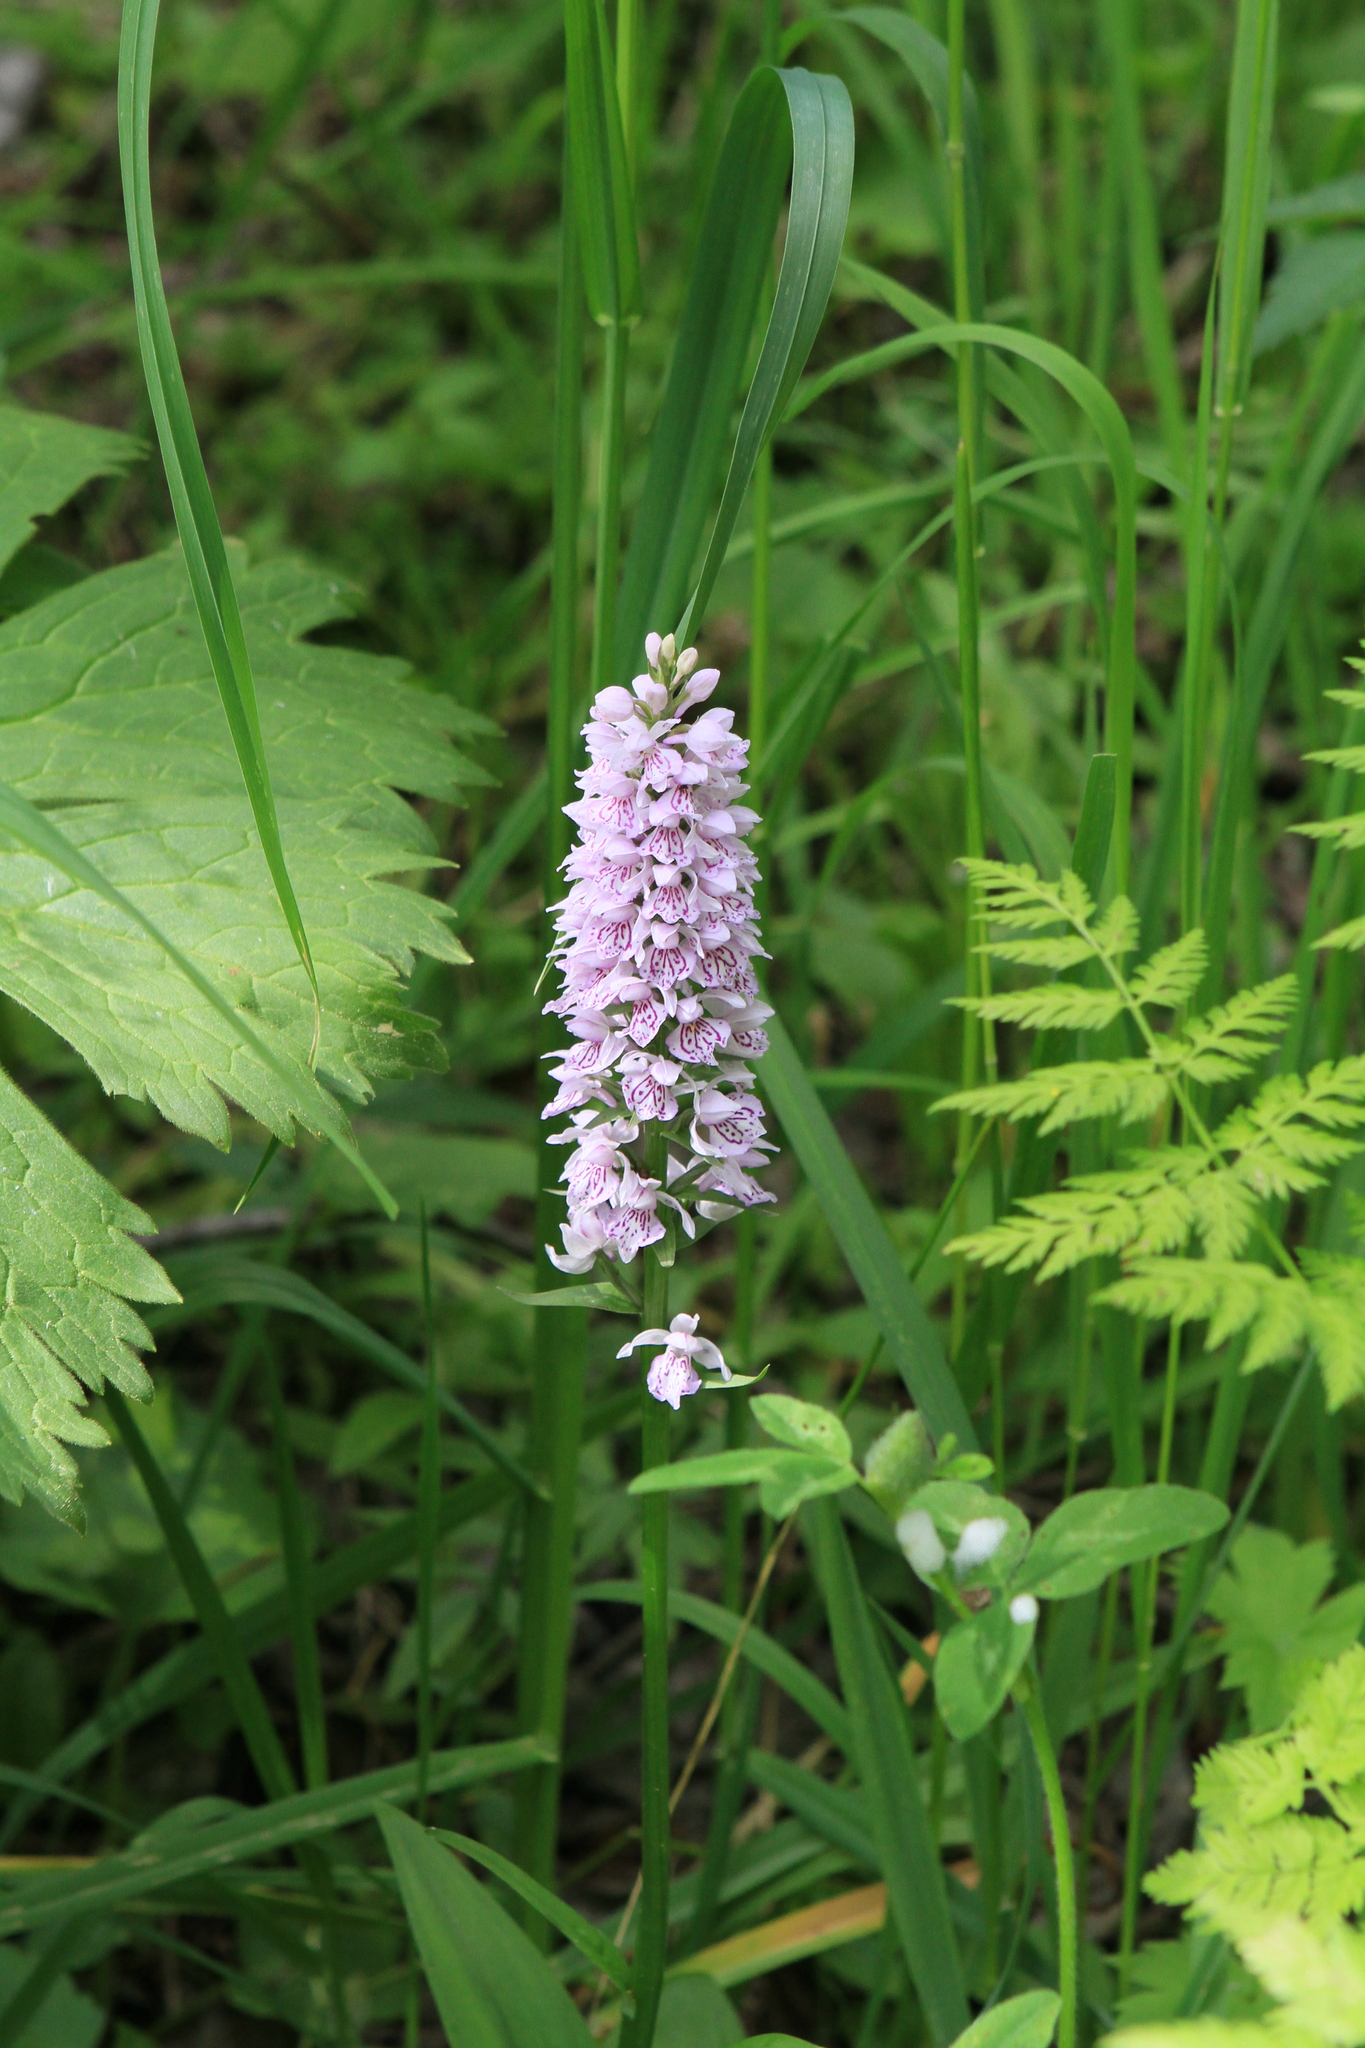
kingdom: Plantae
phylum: Tracheophyta
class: Liliopsida
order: Asparagales
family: Orchidaceae
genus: Dactylorhiza
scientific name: Dactylorhiza maculata
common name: Heath spotted-orchid
